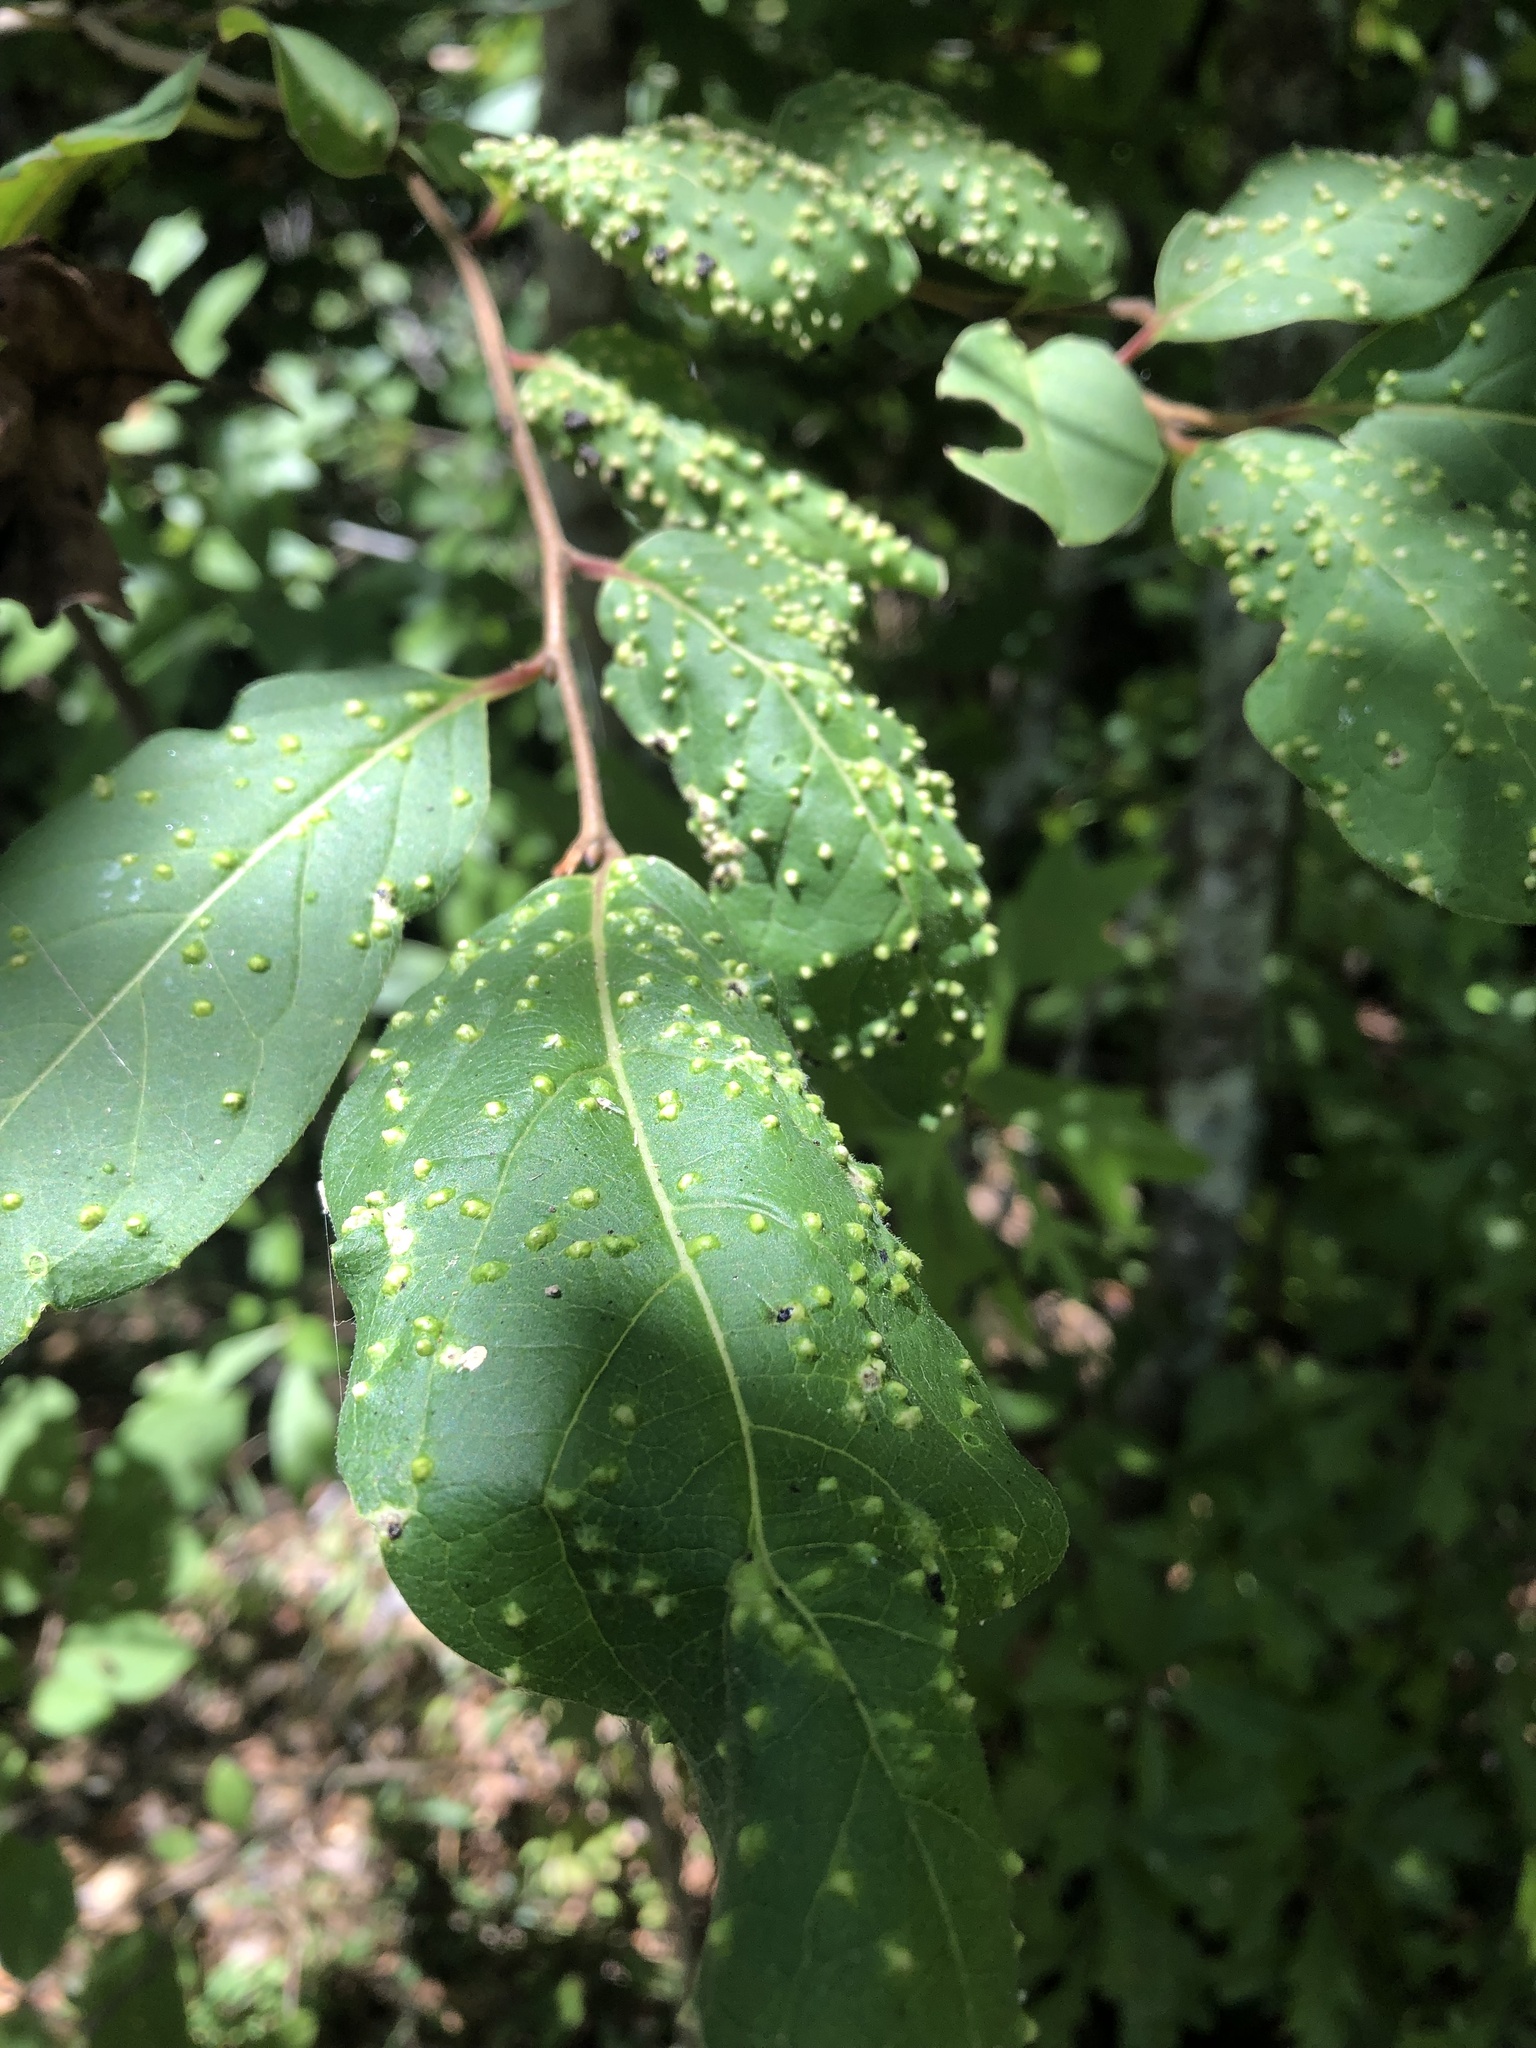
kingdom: Animalia
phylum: Arthropoda
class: Arachnida
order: Trombidiformes
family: Eriophyidae
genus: Aceria
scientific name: Aceria
